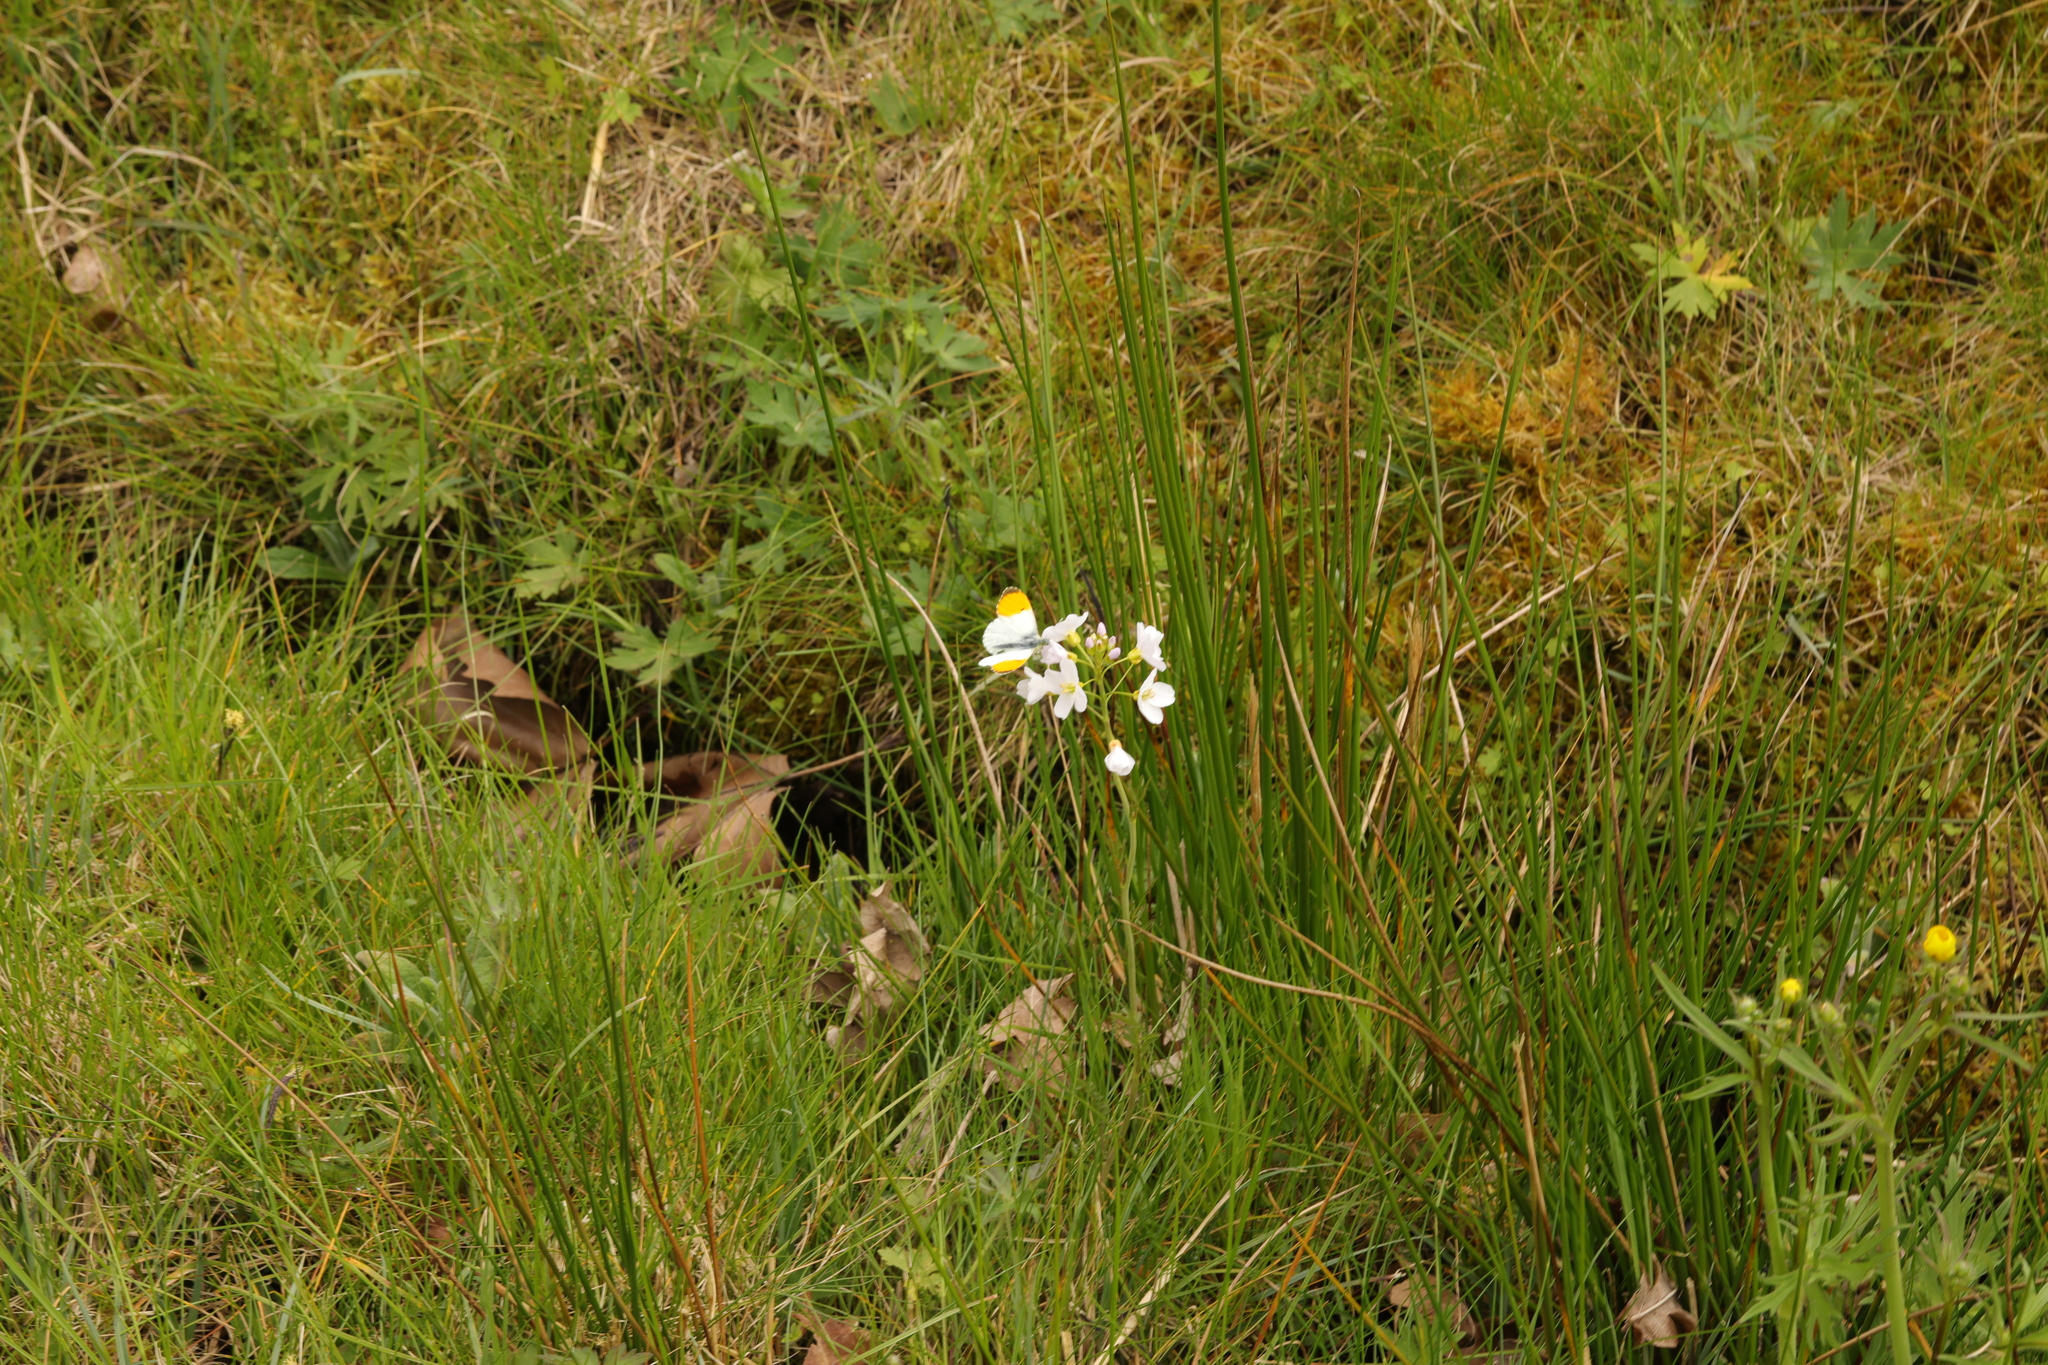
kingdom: Animalia
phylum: Arthropoda
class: Insecta
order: Lepidoptera
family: Pieridae
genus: Anthocharis
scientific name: Anthocharis cardamines
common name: Orange-tip
